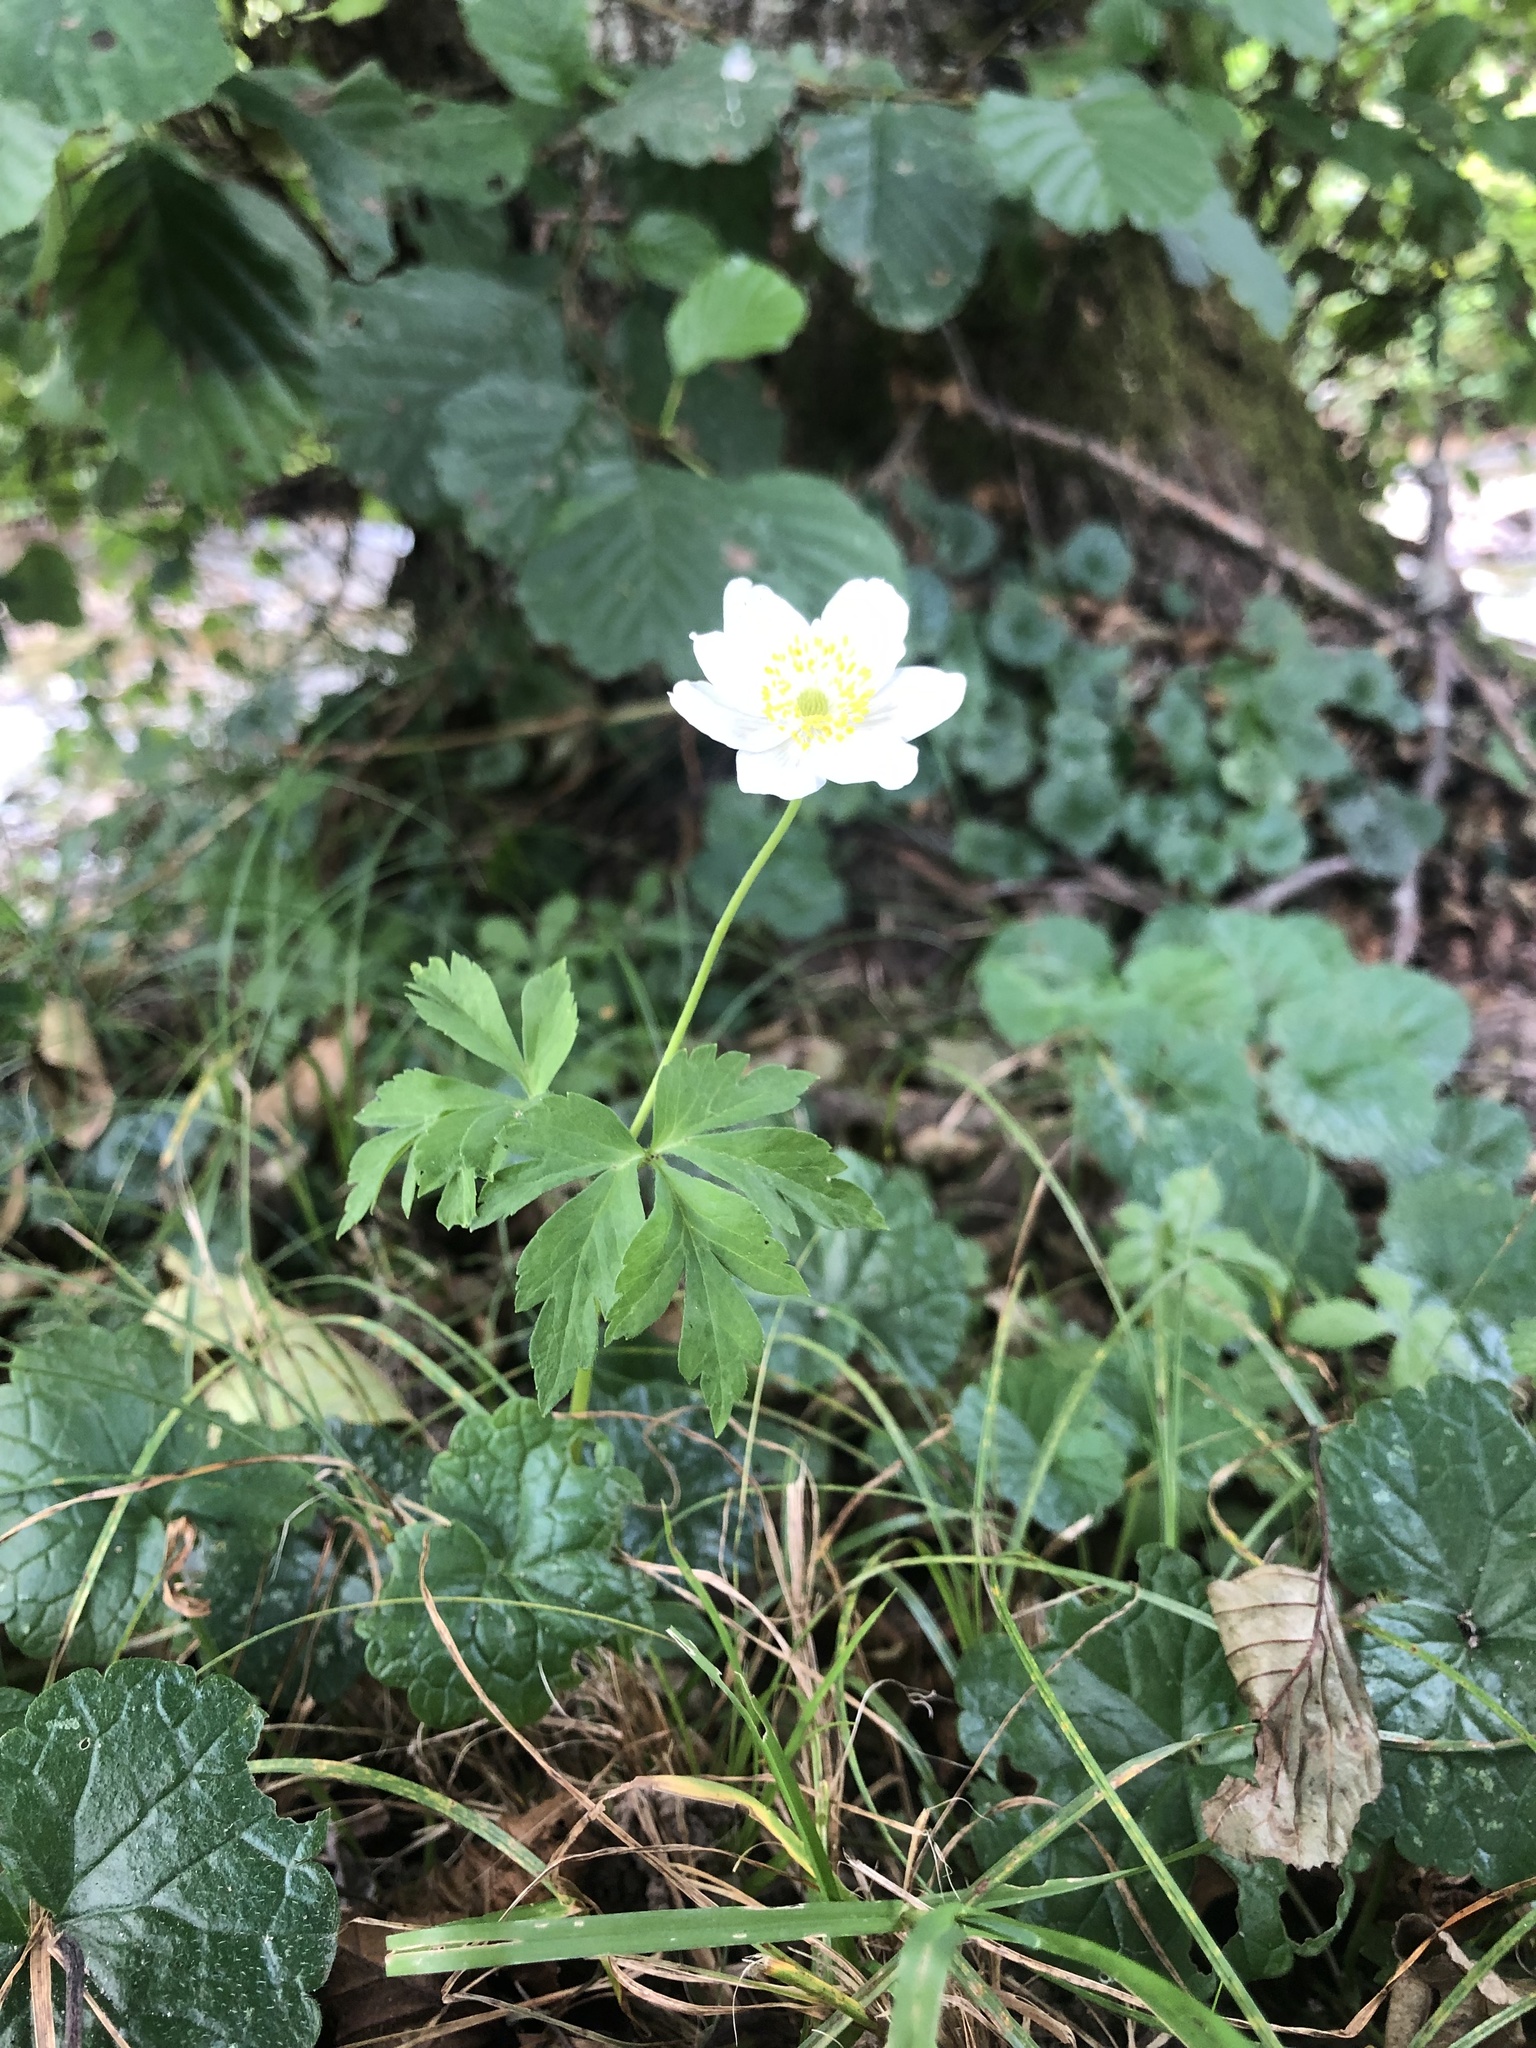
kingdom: Plantae
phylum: Tracheophyta
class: Magnoliopsida
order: Ranunculales
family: Ranunculaceae
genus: Anemone
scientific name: Anemone nemorosa
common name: Wood anemone
